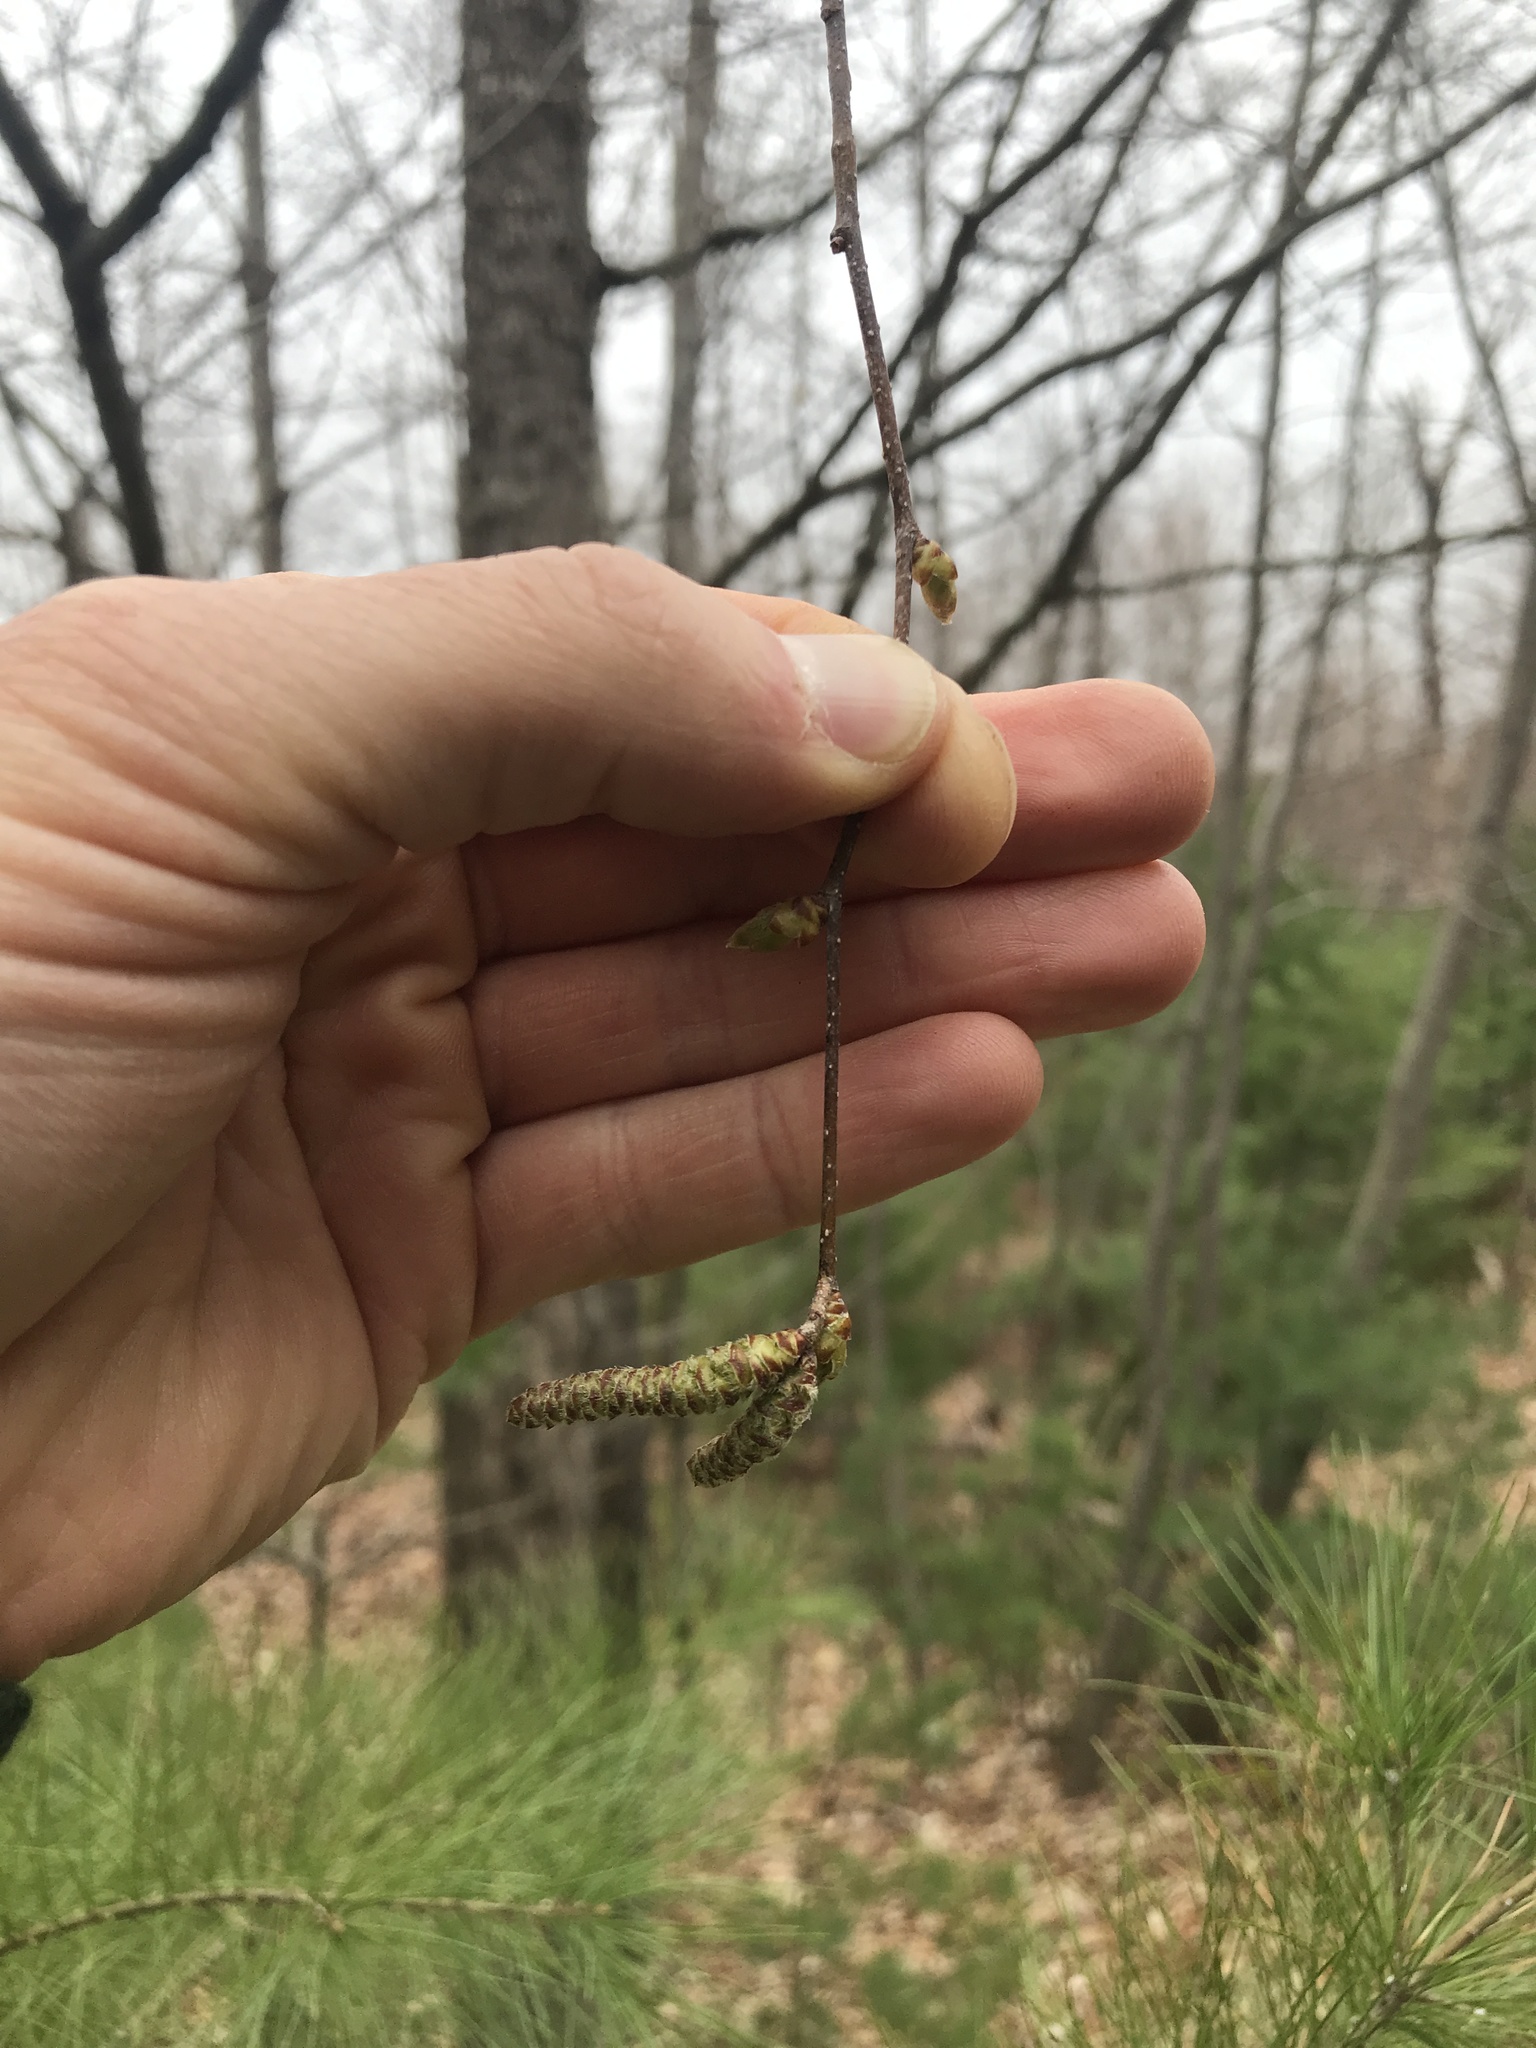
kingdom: Plantae
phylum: Tracheophyta
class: Magnoliopsida
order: Fagales
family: Betulaceae
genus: Ostrya
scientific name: Ostrya virginiana
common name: Ironwood
